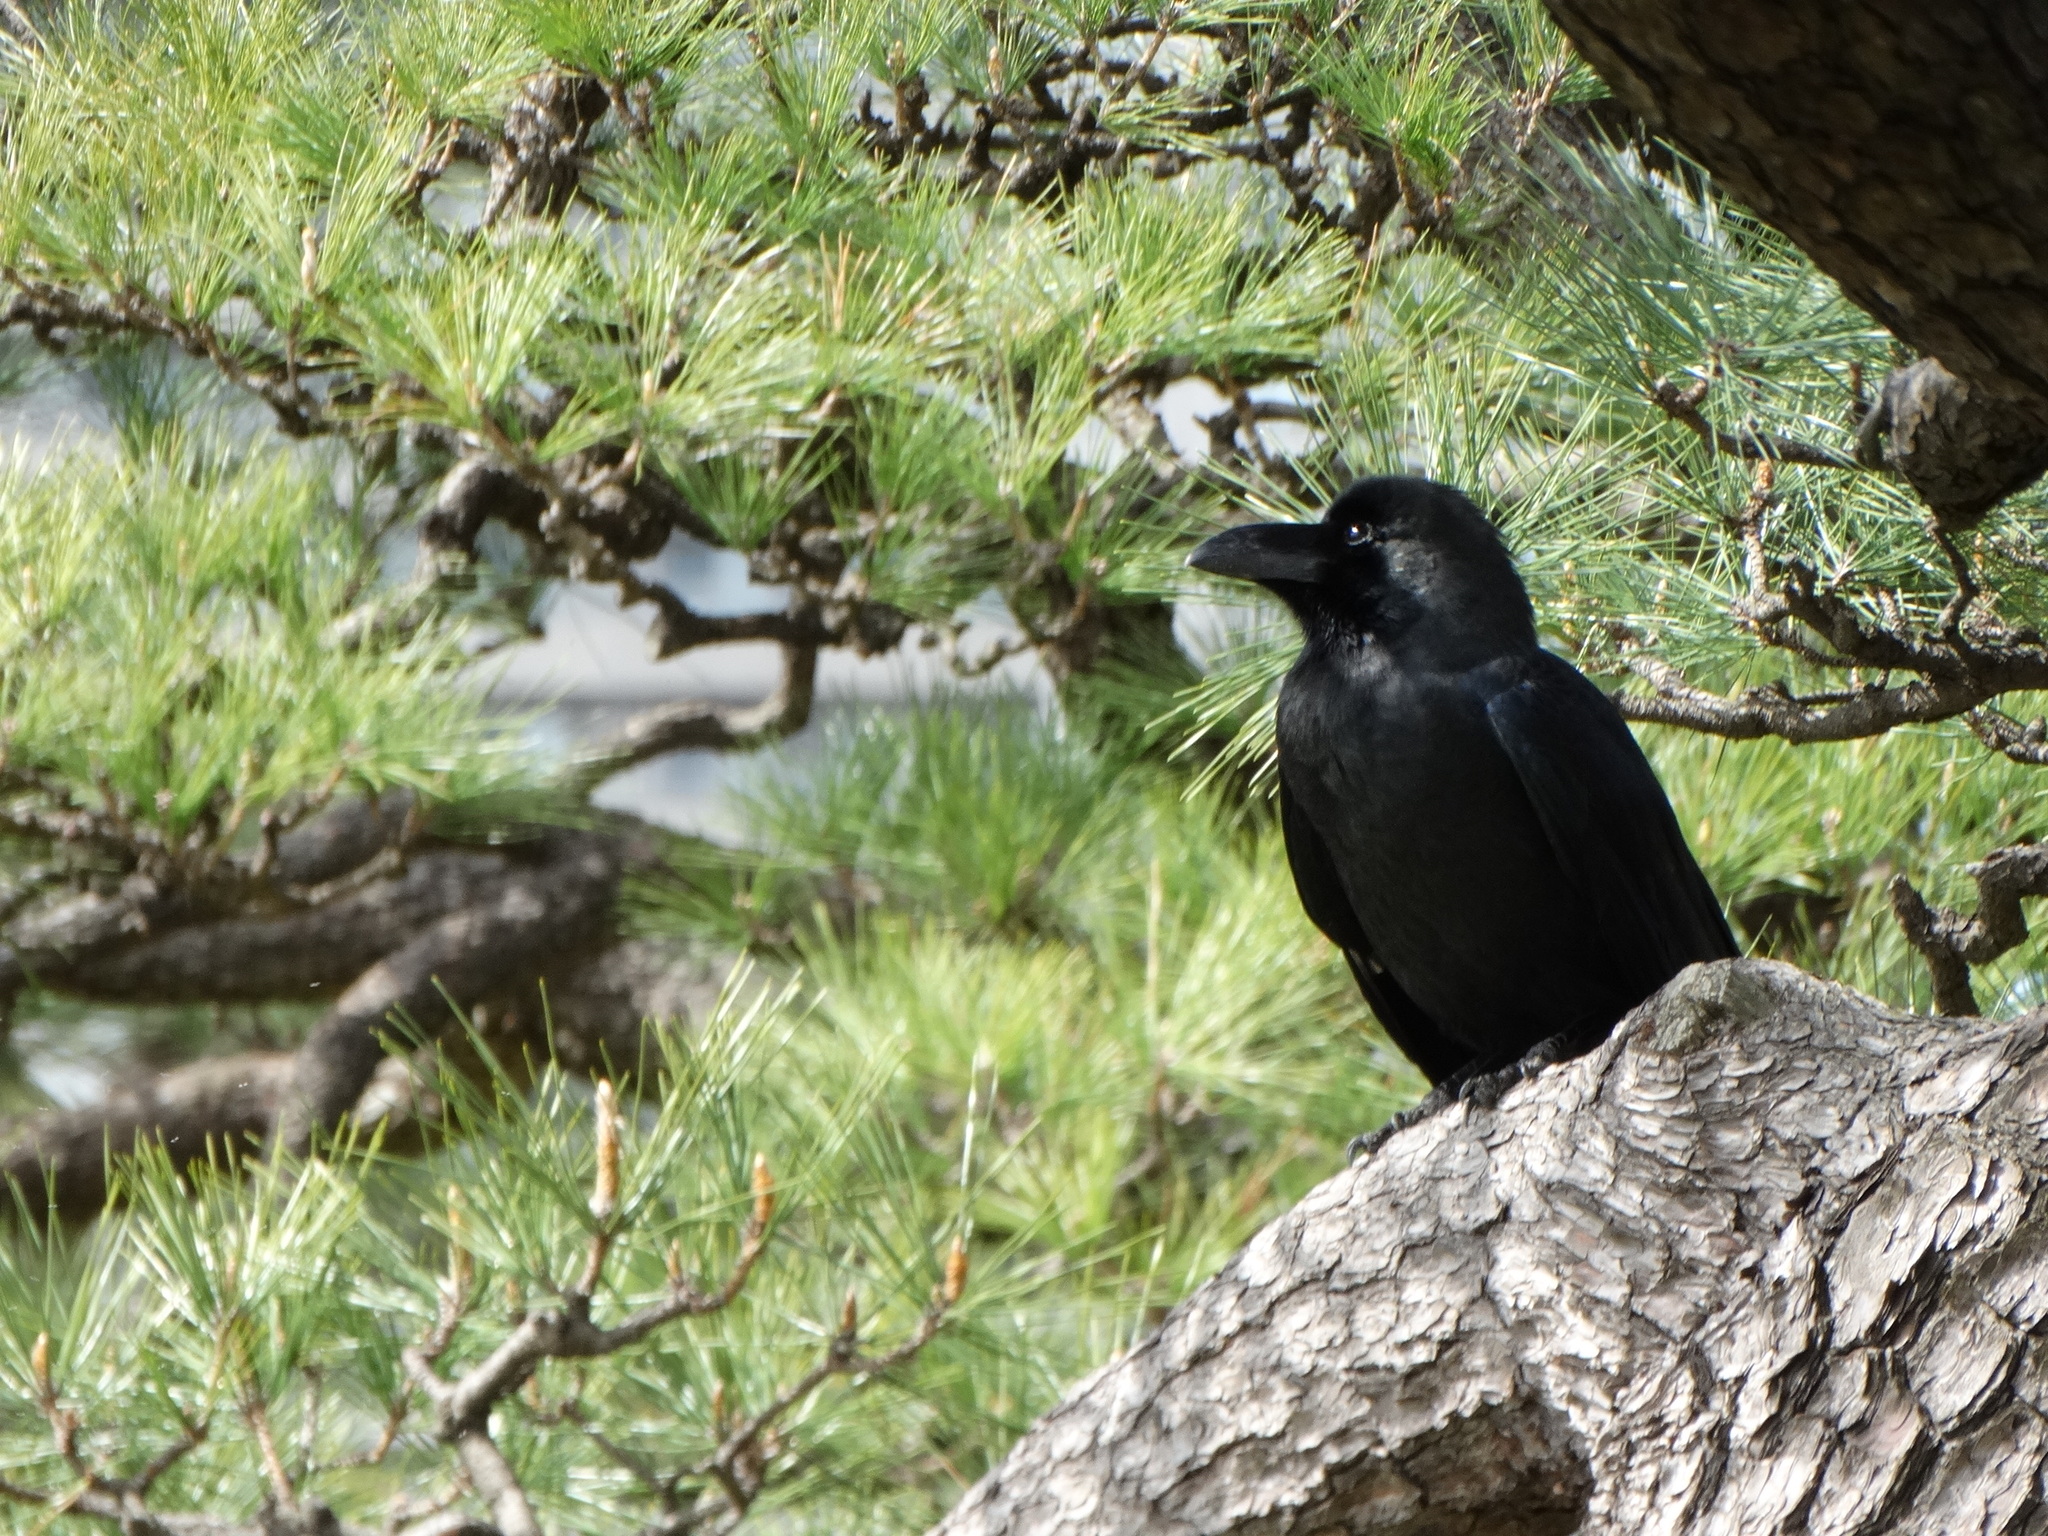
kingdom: Animalia
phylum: Chordata
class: Aves
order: Passeriformes
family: Corvidae
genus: Corvus
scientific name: Corvus macrorhynchos
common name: Large-billed crow
